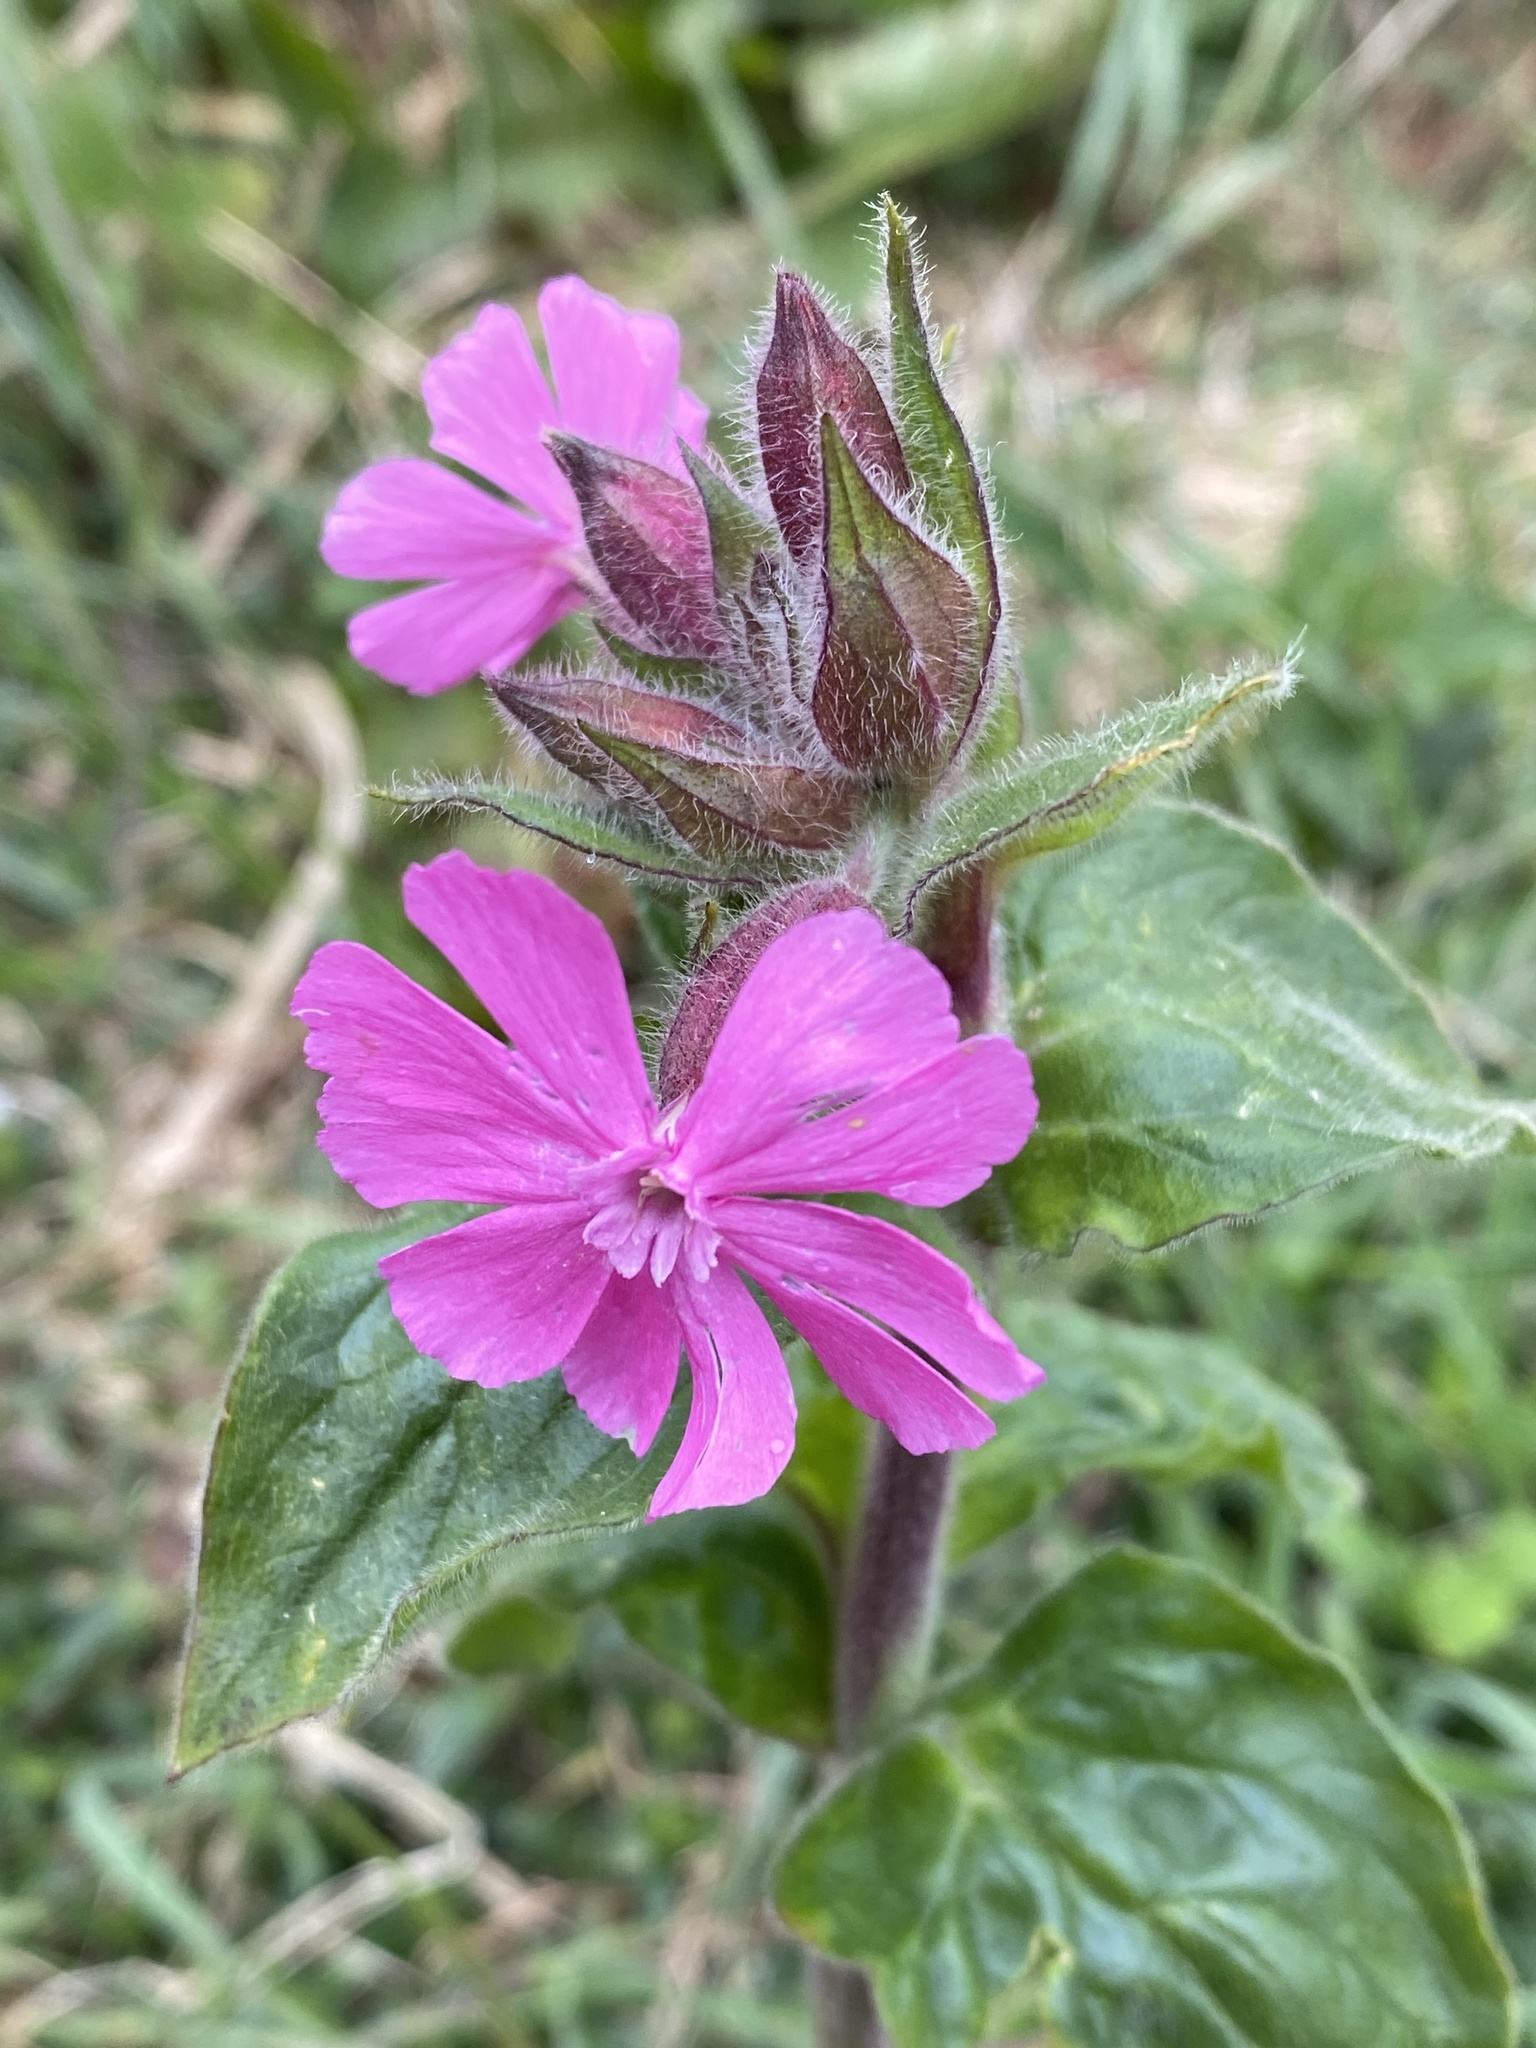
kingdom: Plantae
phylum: Tracheophyta
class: Magnoliopsida
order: Caryophyllales
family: Caryophyllaceae
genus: Silene
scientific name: Silene dioica
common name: Red campion
